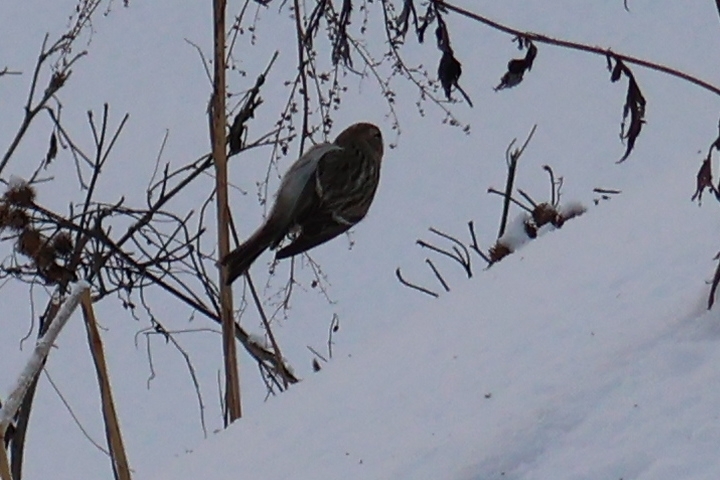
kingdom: Animalia
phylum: Chordata
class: Aves
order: Passeriformes
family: Fringillidae
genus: Acanthis
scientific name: Acanthis flammea
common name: Common redpoll
